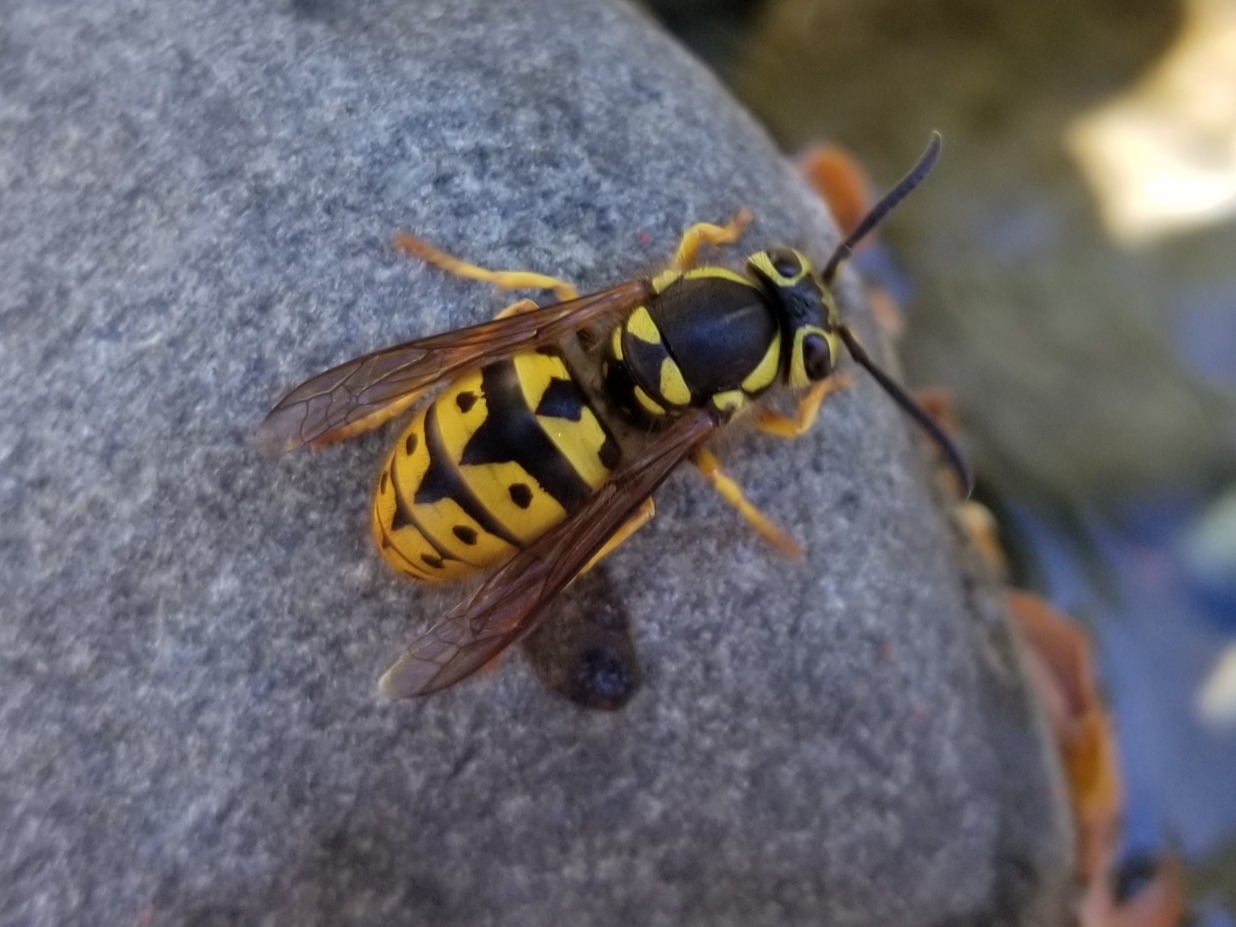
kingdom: Animalia
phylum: Arthropoda
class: Insecta
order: Hymenoptera
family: Vespidae
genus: Vespula
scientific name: Vespula pensylvanica
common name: Western yellowjacket
